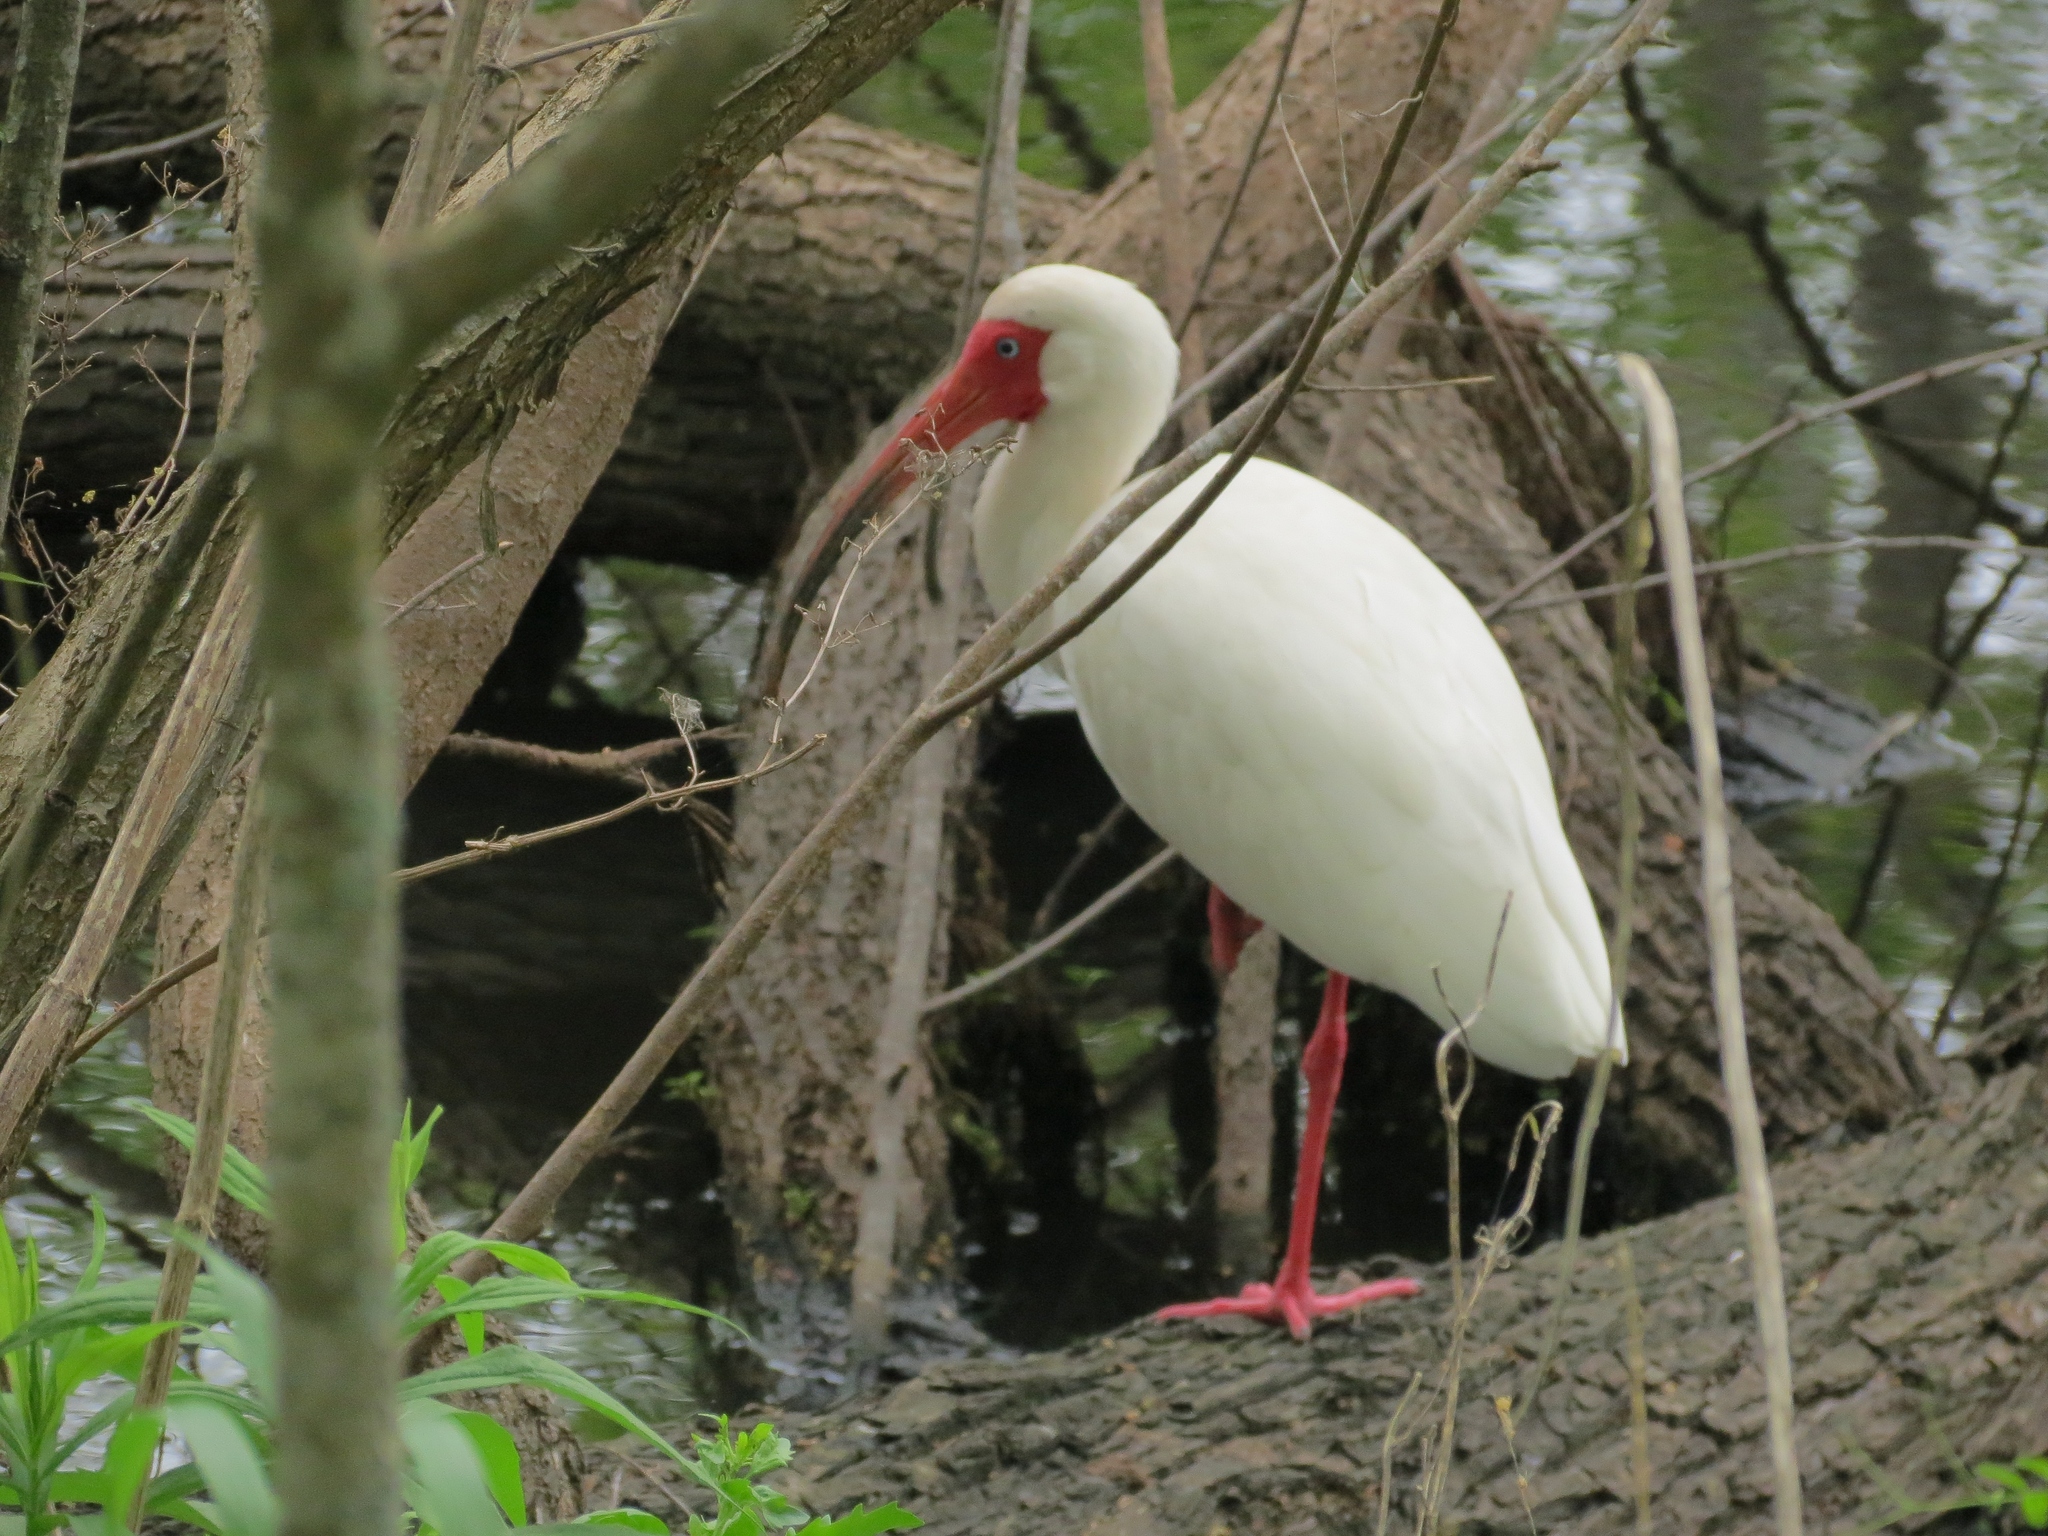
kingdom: Animalia
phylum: Chordata
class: Aves
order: Pelecaniformes
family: Threskiornithidae
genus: Eudocimus
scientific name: Eudocimus albus
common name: White ibis
